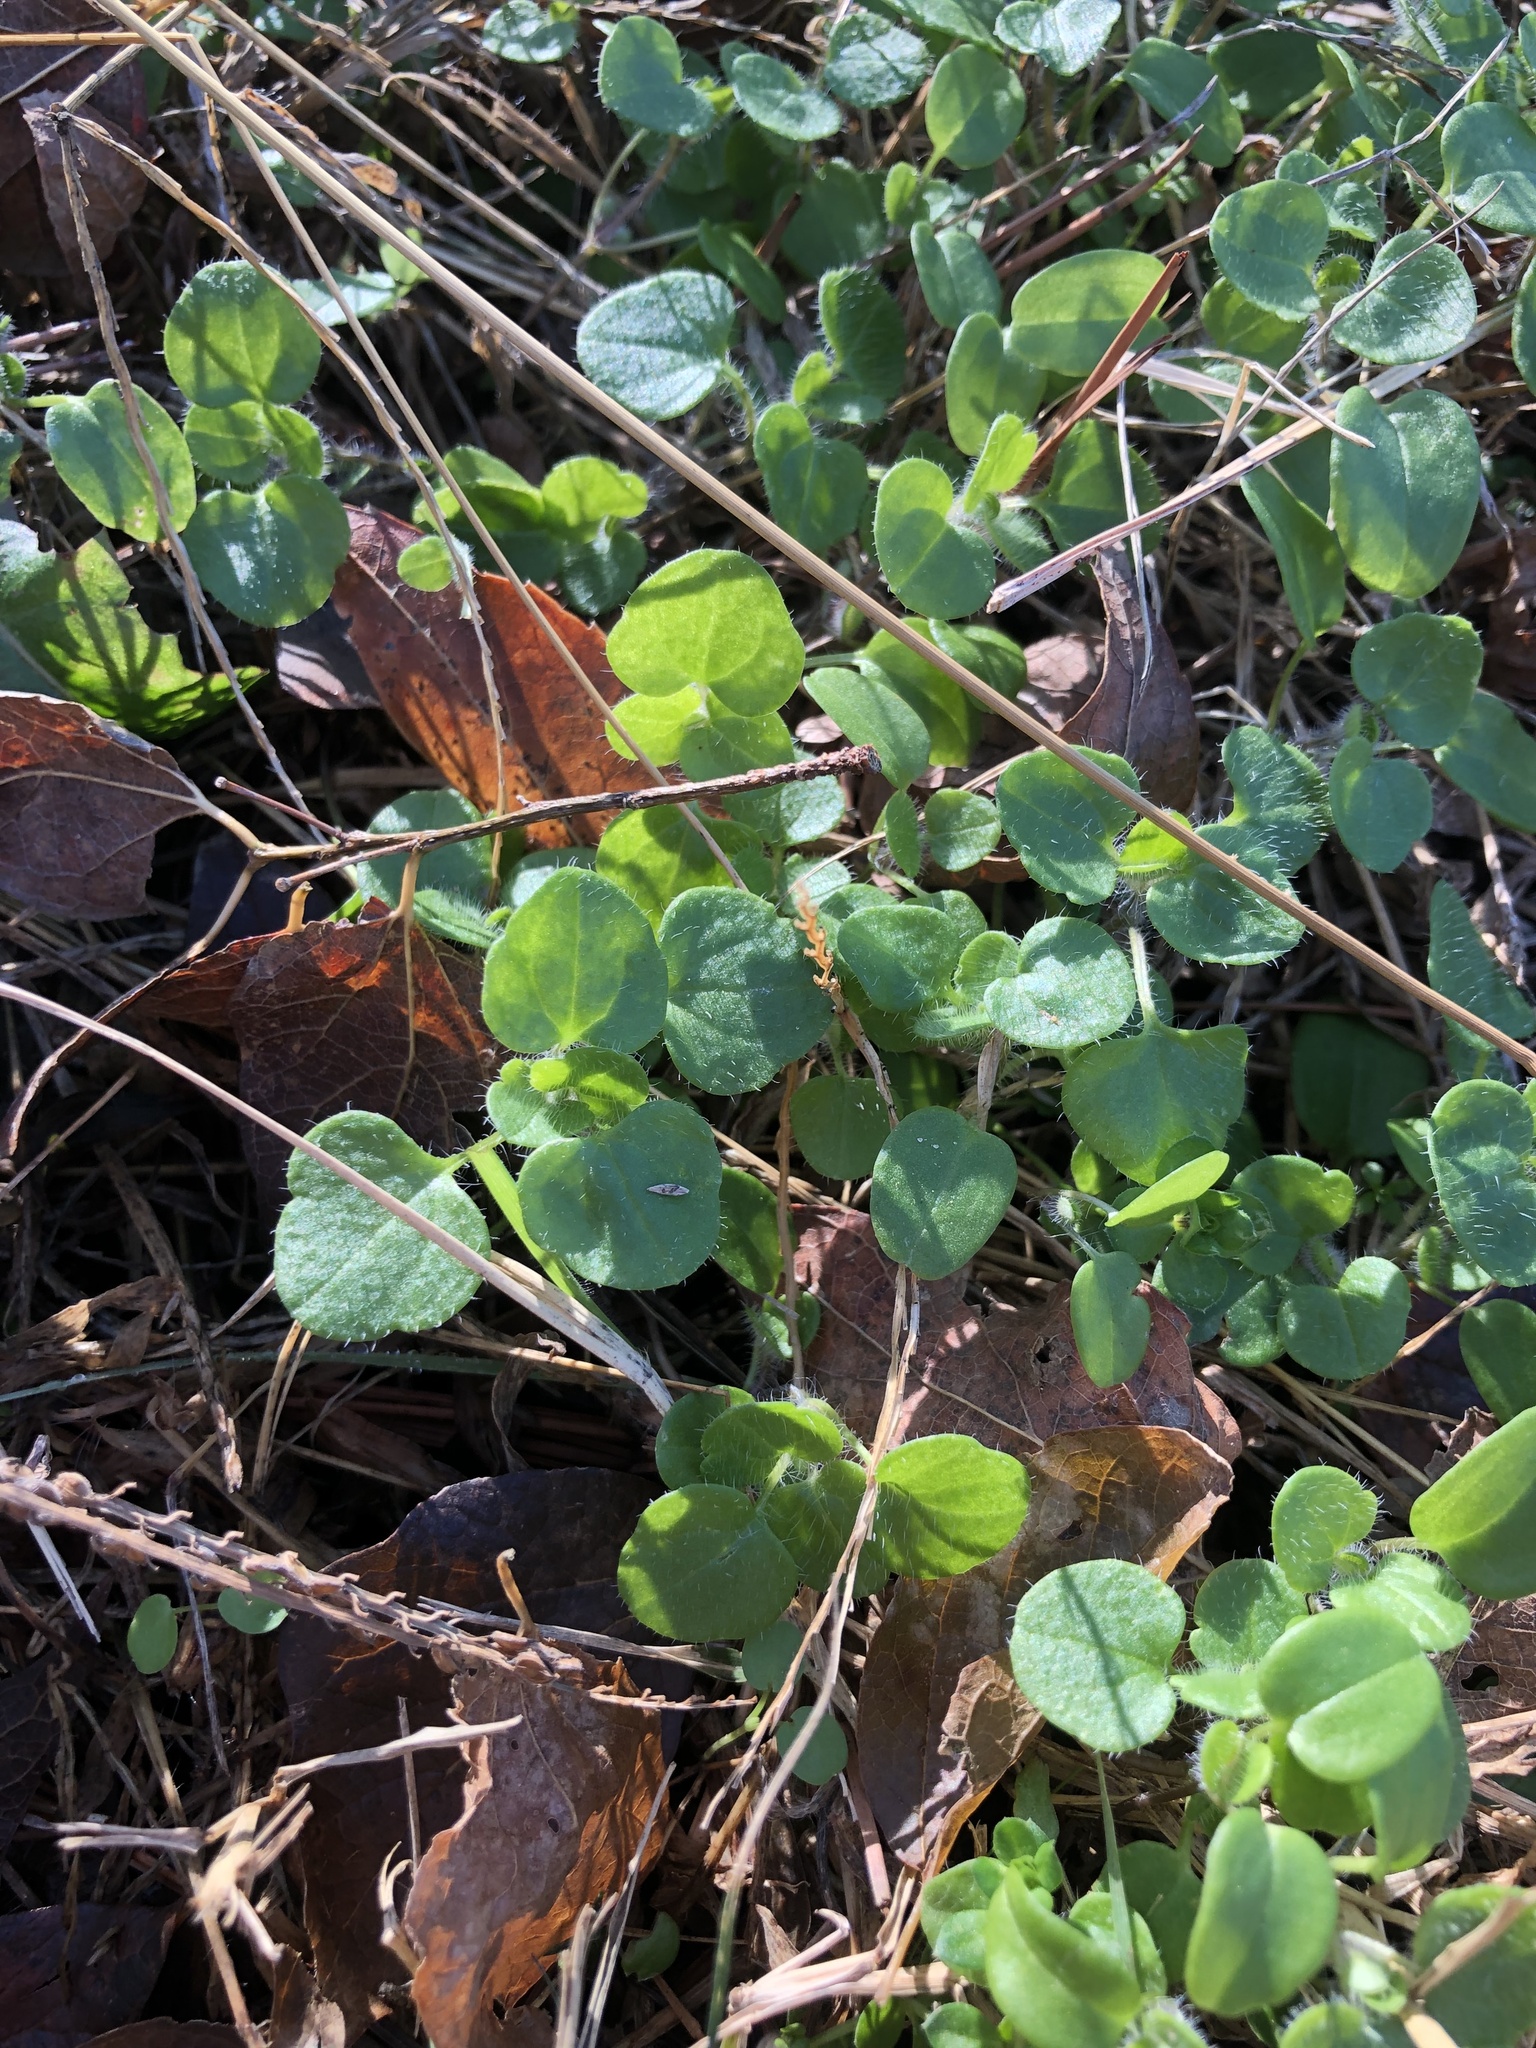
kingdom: Plantae
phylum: Tracheophyta
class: Magnoliopsida
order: Lamiales
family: Plantaginaceae
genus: Veronica
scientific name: Veronica hederifolia
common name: Ivy-leaved speedwell
